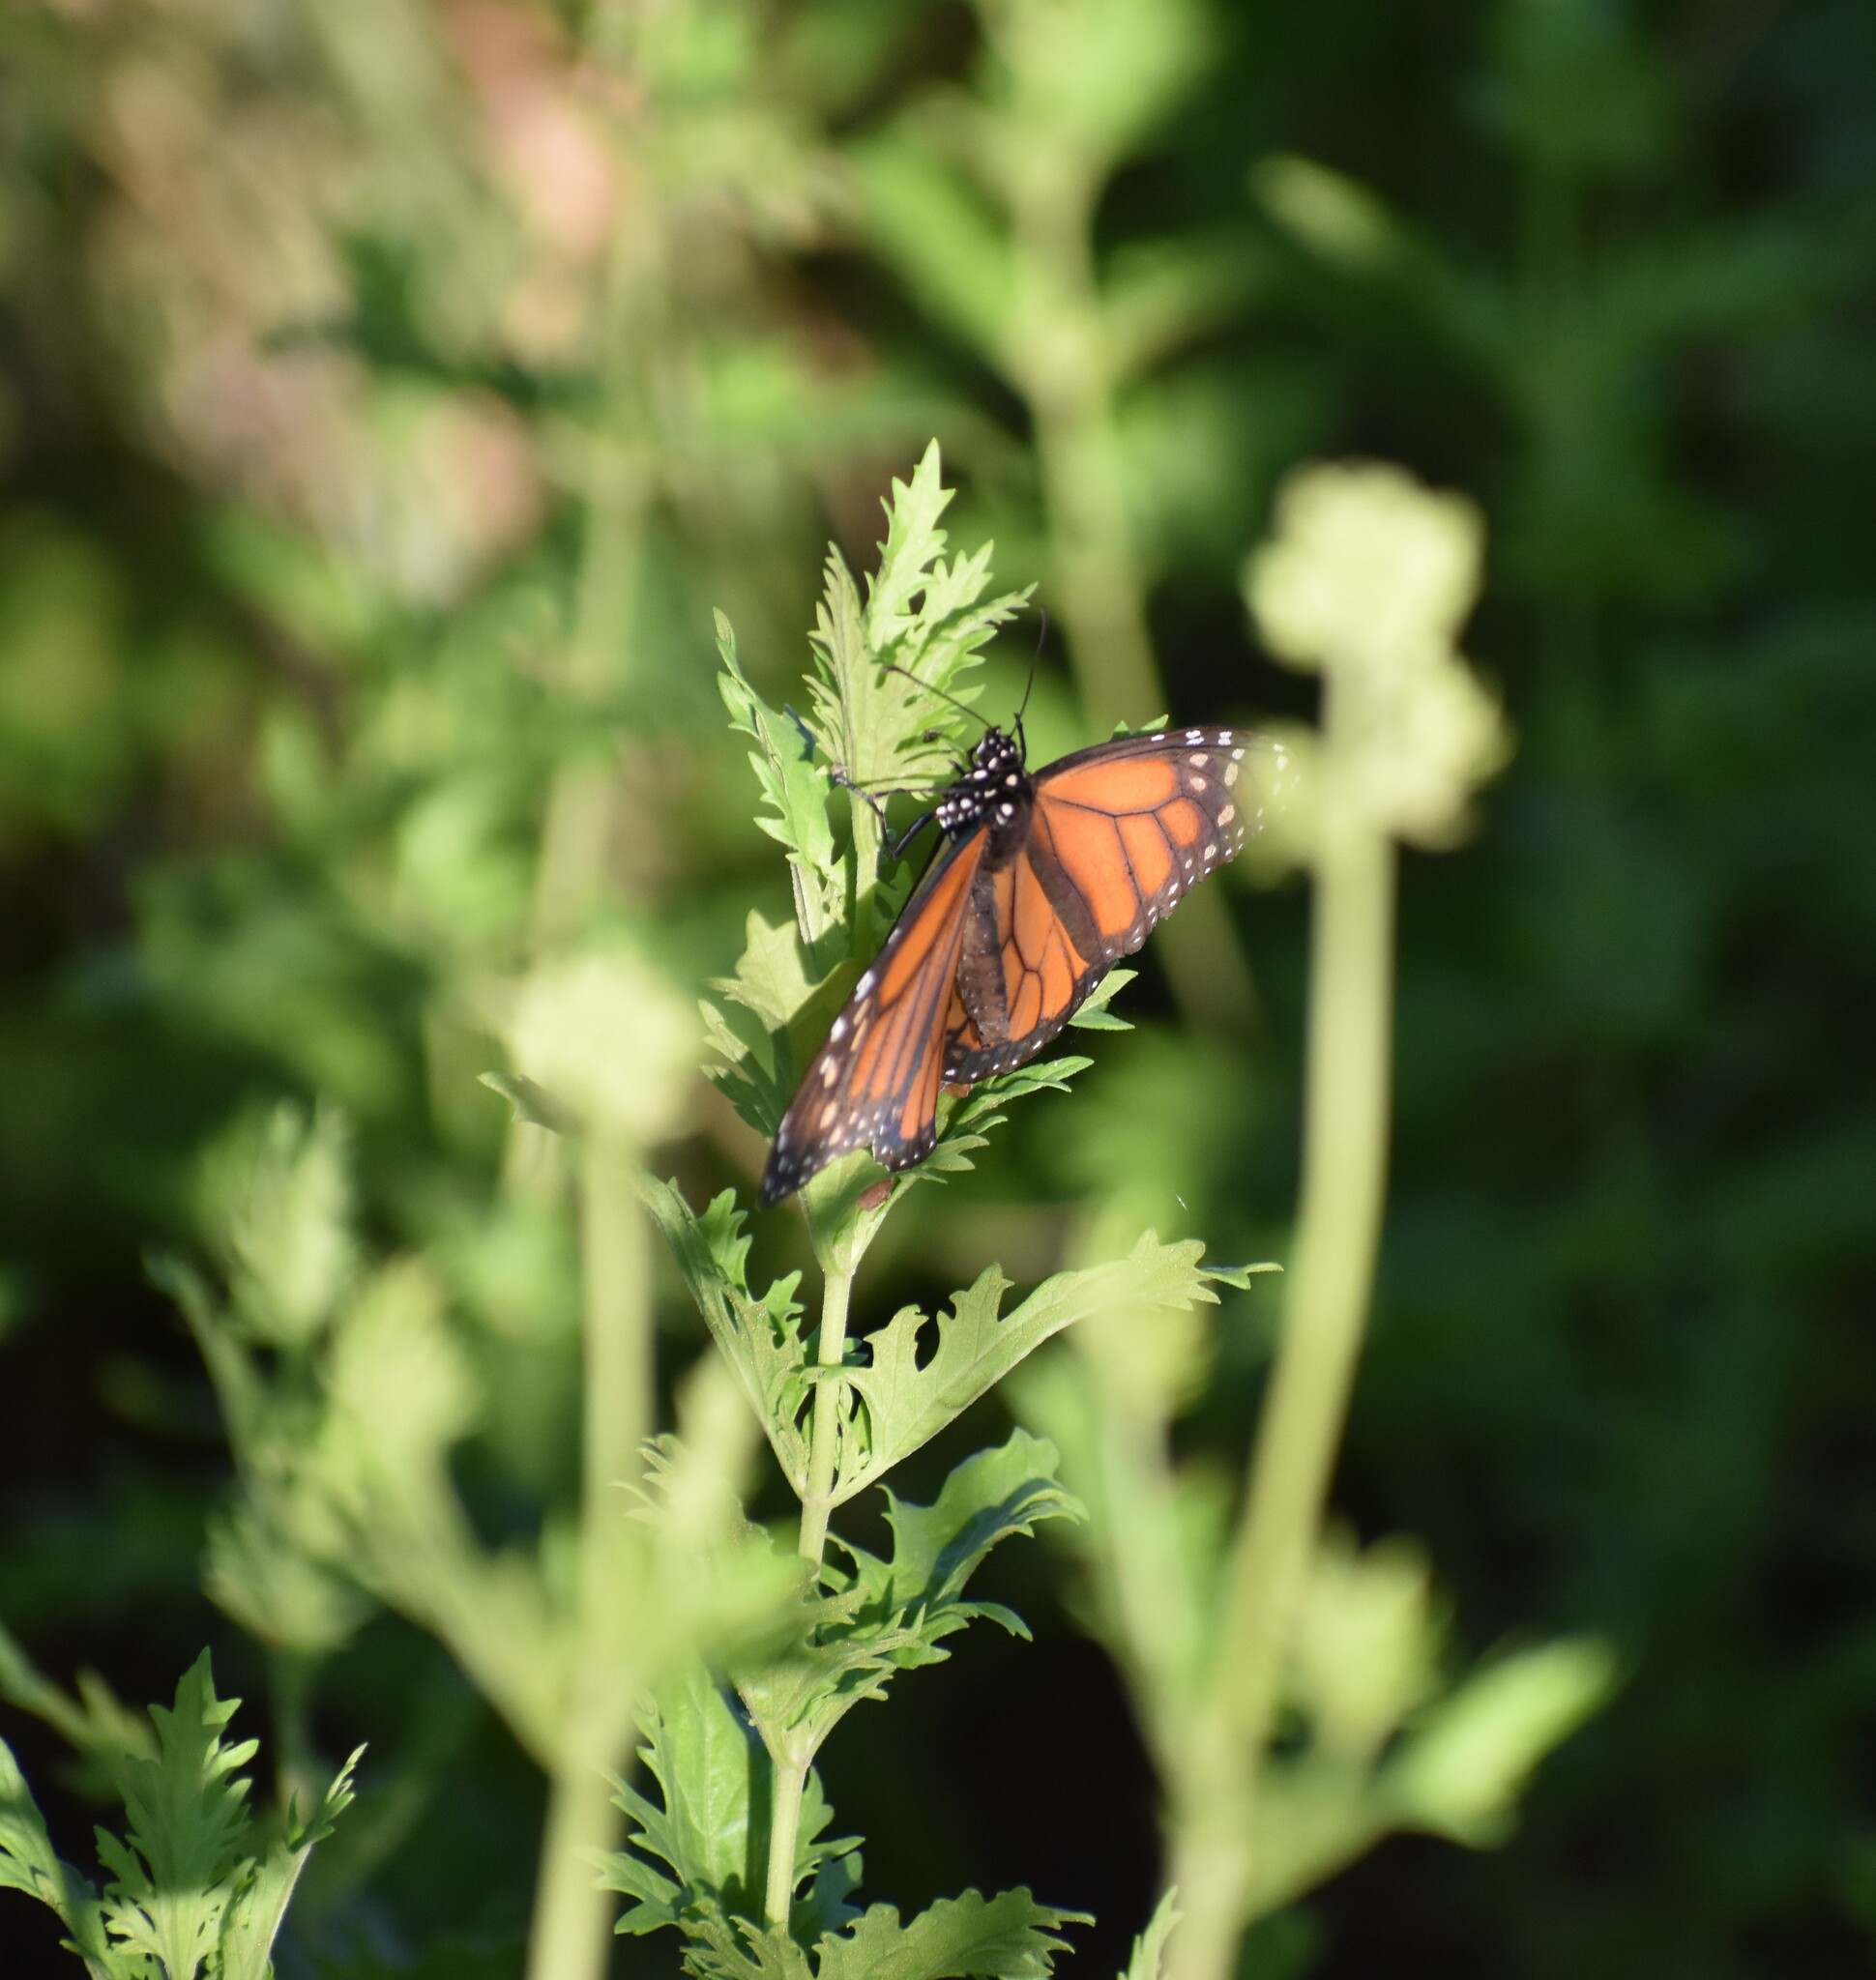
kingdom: Animalia
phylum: Arthropoda
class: Insecta
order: Lepidoptera
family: Nymphalidae
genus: Danaus
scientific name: Danaus plexippus
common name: Monarch
